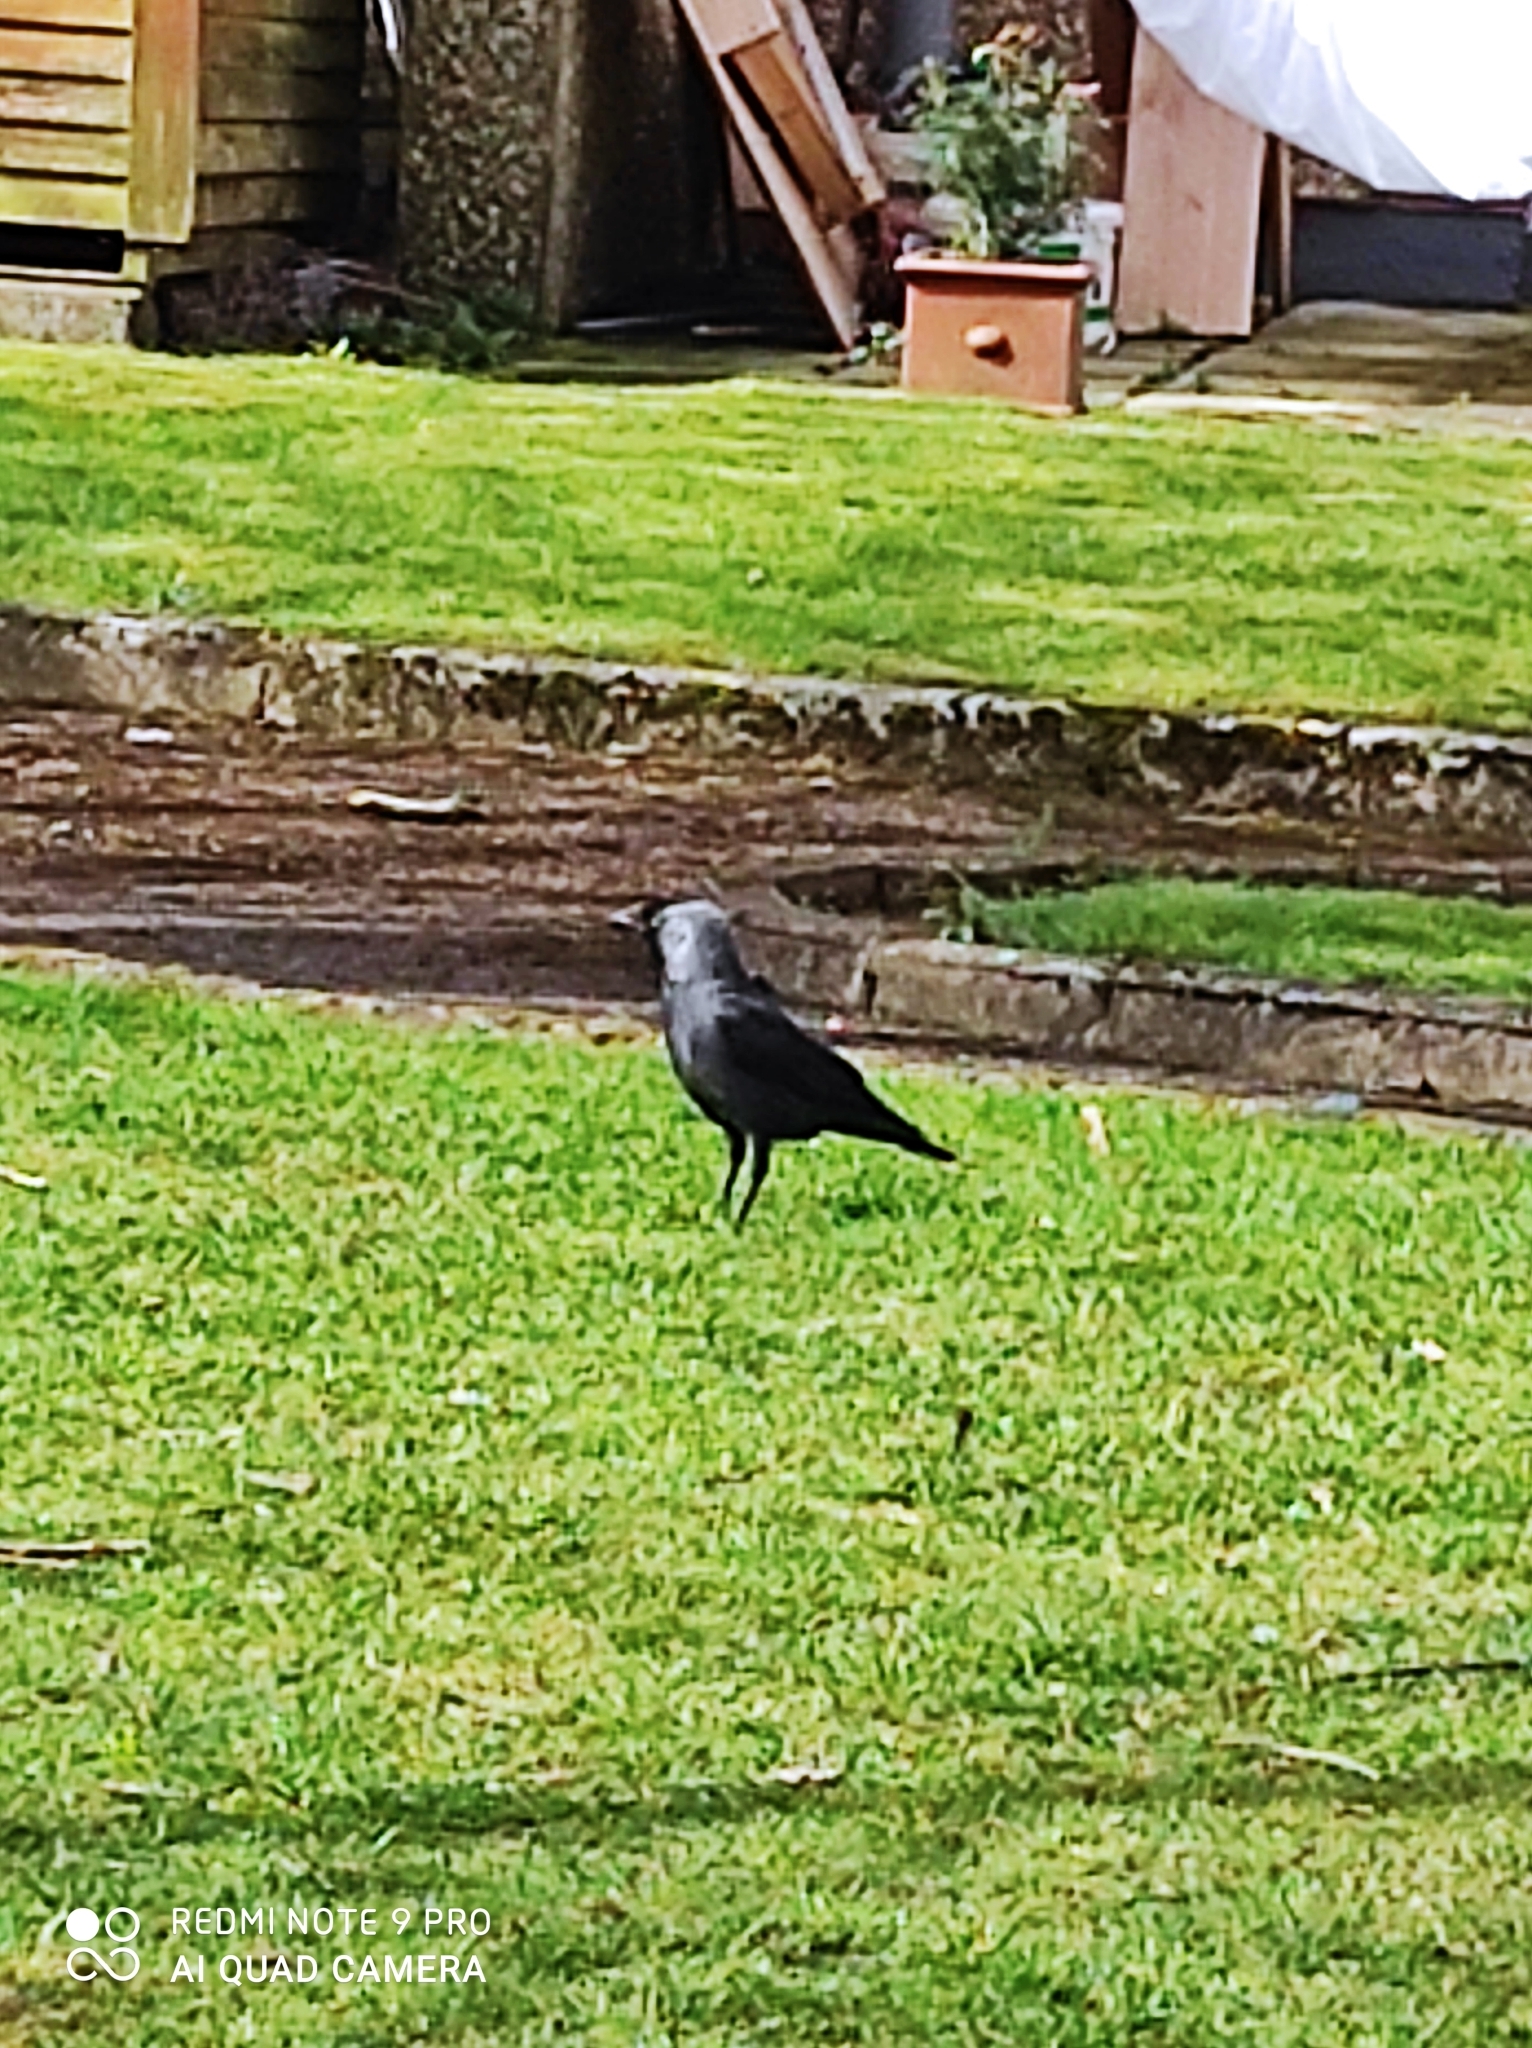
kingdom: Animalia
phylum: Chordata
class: Aves
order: Passeriformes
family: Corvidae
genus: Coloeus
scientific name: Coloeus monedula
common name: Western jackdaw
